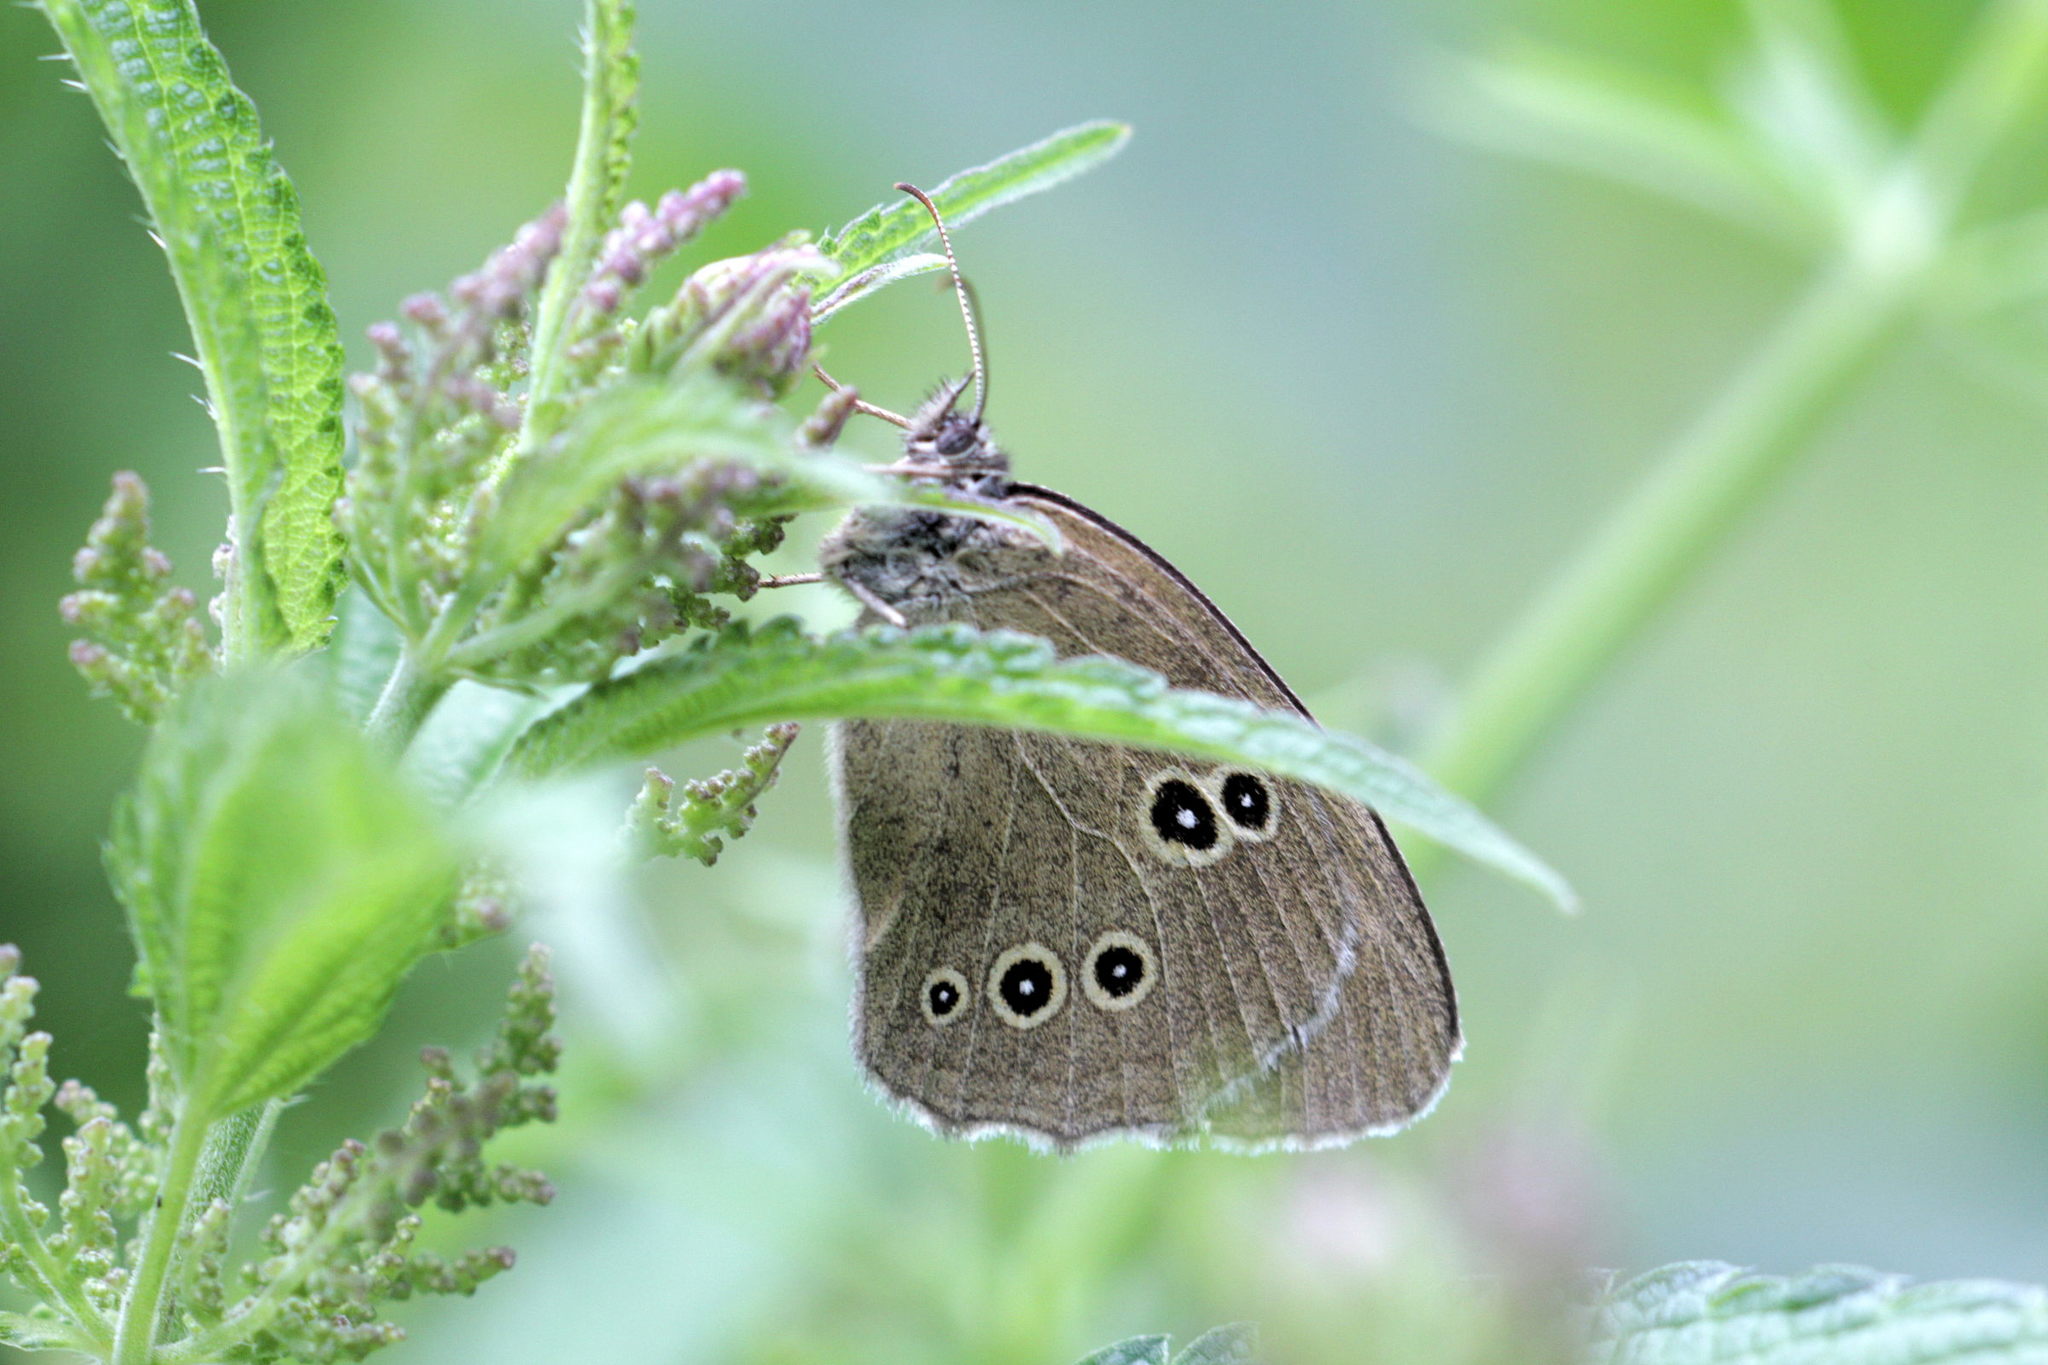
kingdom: Animalia
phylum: Arthropoda
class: Insecta
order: Lepidoptera
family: Nymphalidae
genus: Aphantopus
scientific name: Aphantopus hyperantus
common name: Ringlet
